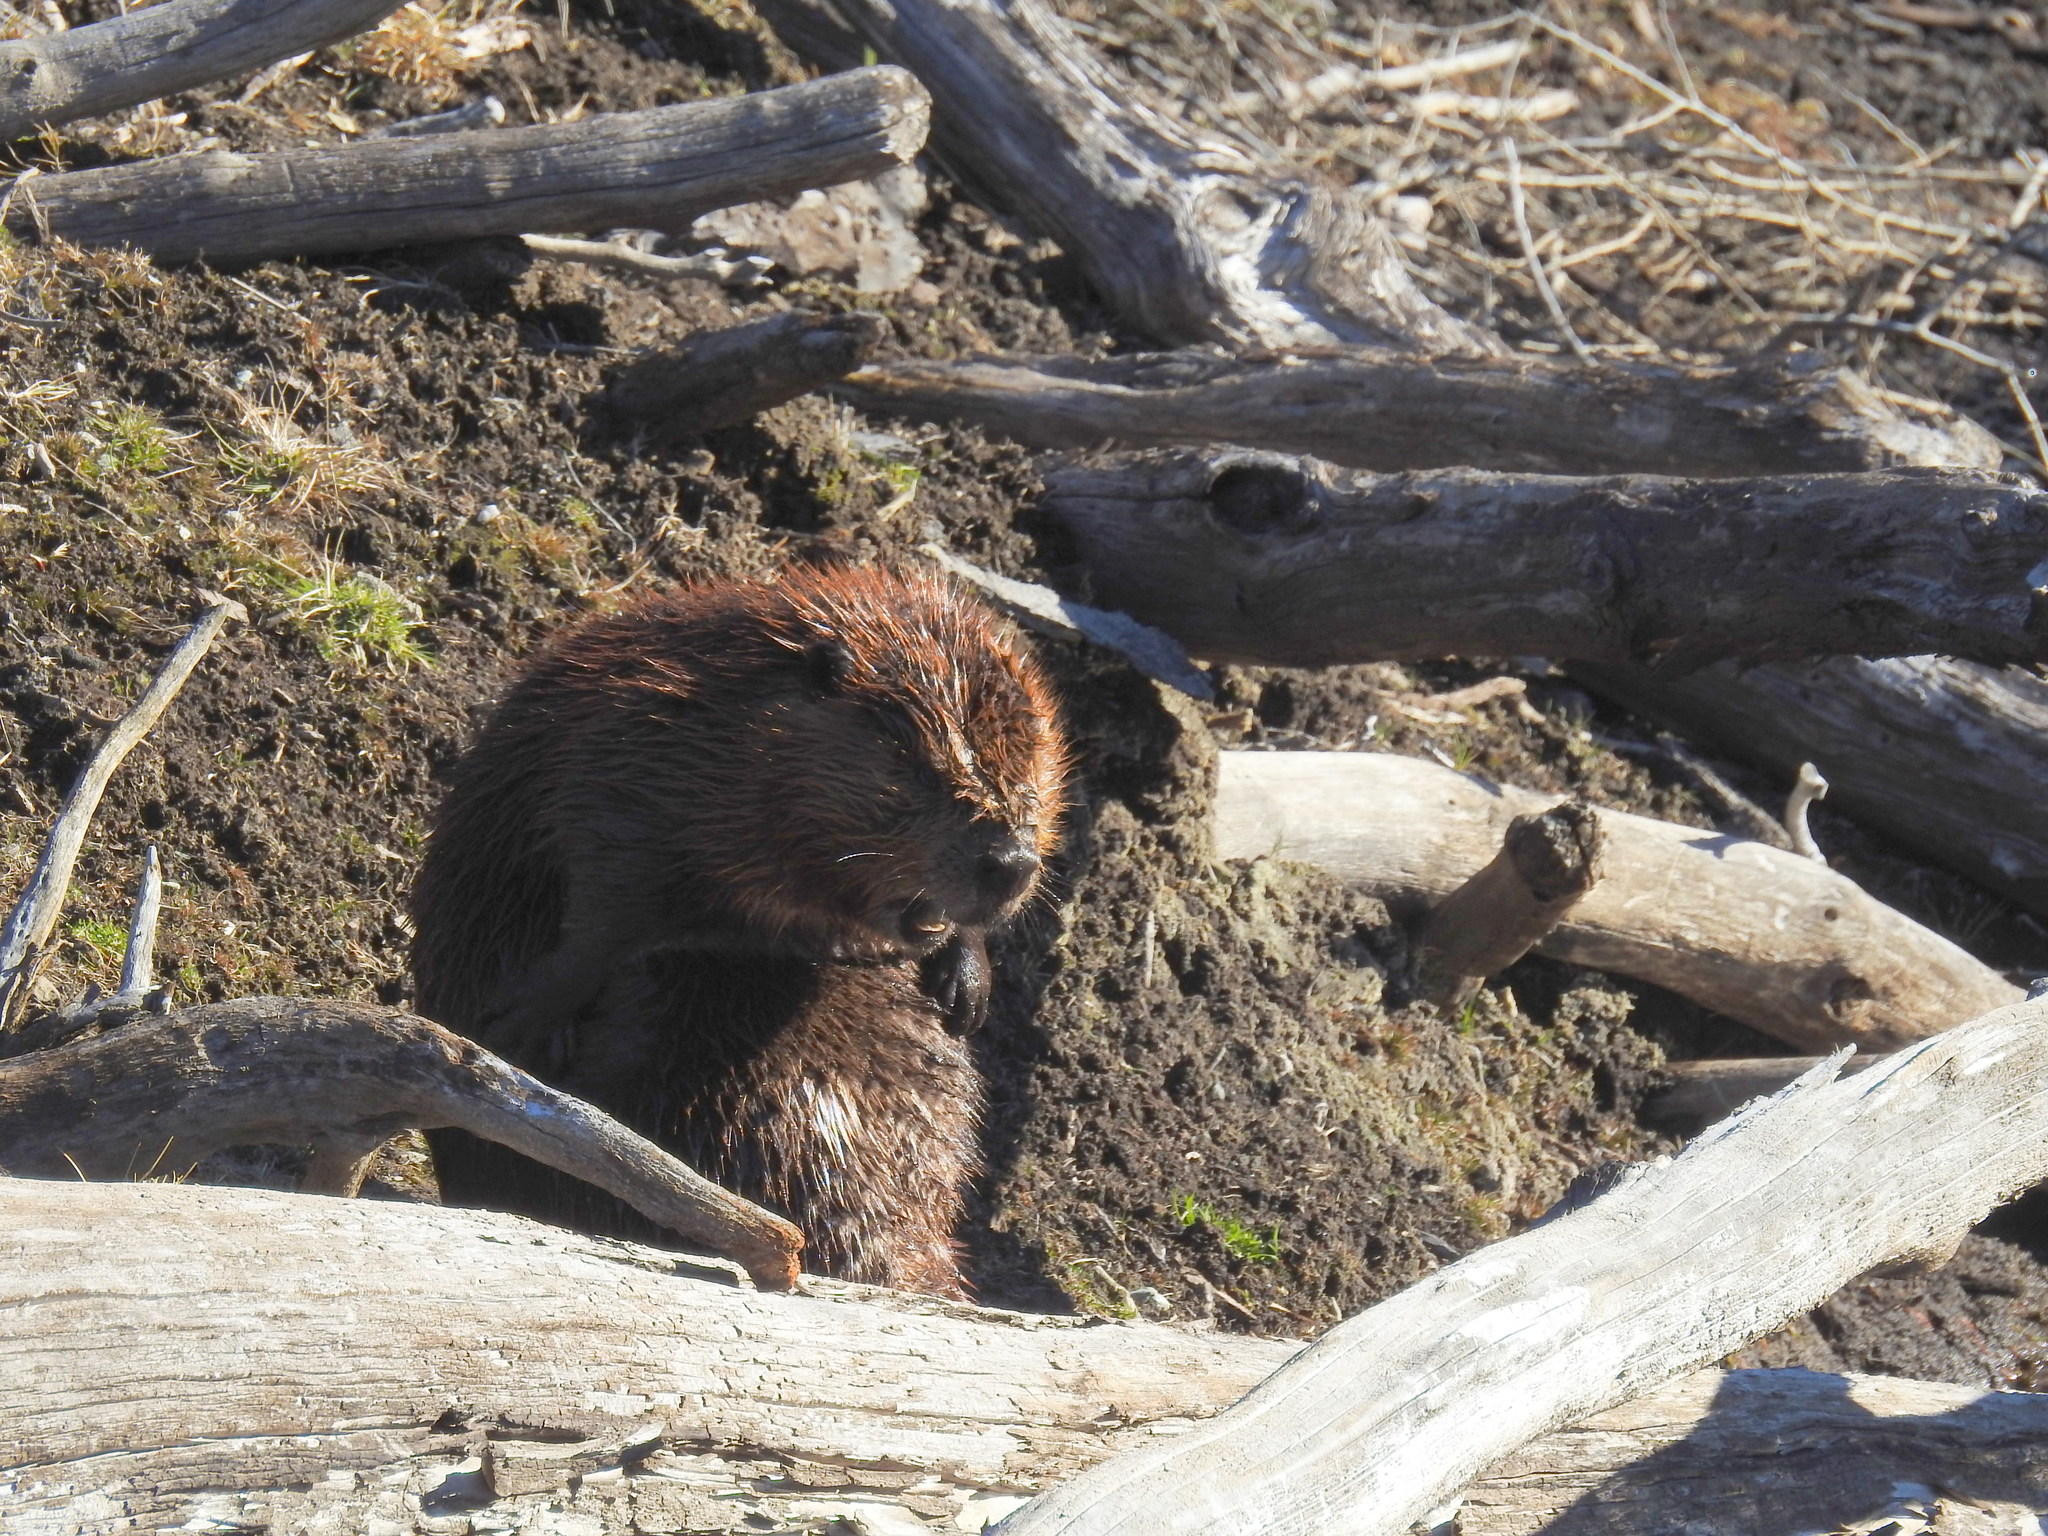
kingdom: Animalia
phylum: Chordata
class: Mammalia
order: Rodentia
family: Castoridae
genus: Castor
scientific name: Castor canadensis
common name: American beaver
